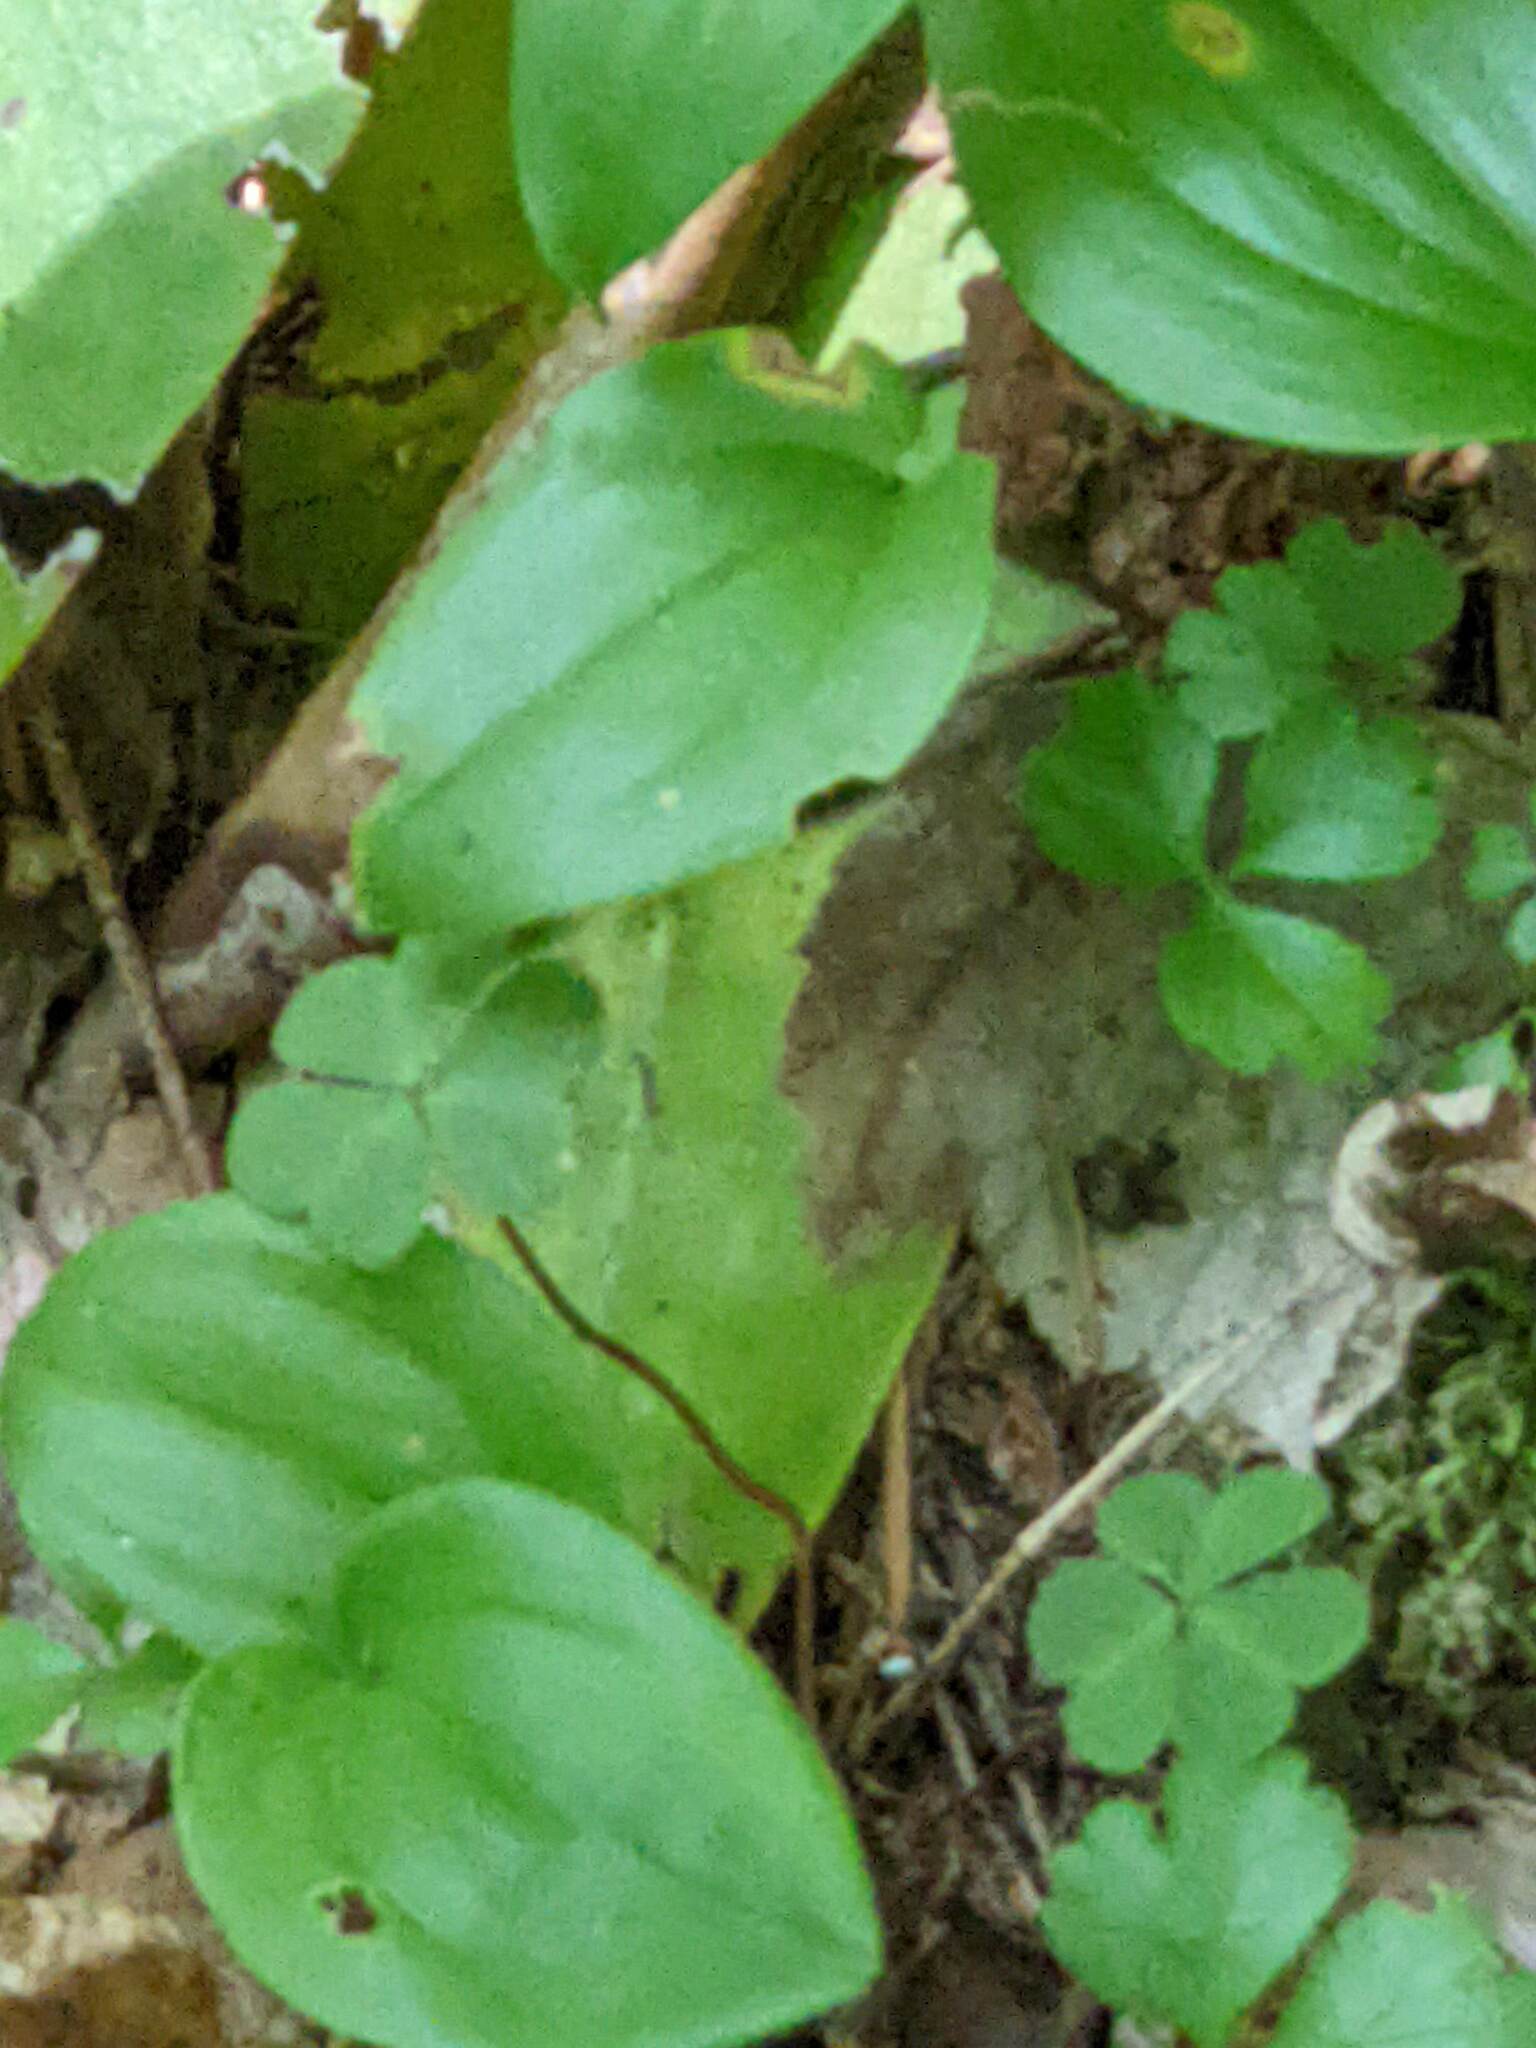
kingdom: Plantae
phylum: Tracheophyta
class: Liliopsida
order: Asparagales
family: Asparagaceae
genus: Maianthemum
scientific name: Maianthemum canadense
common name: False lily-of-the-valley
